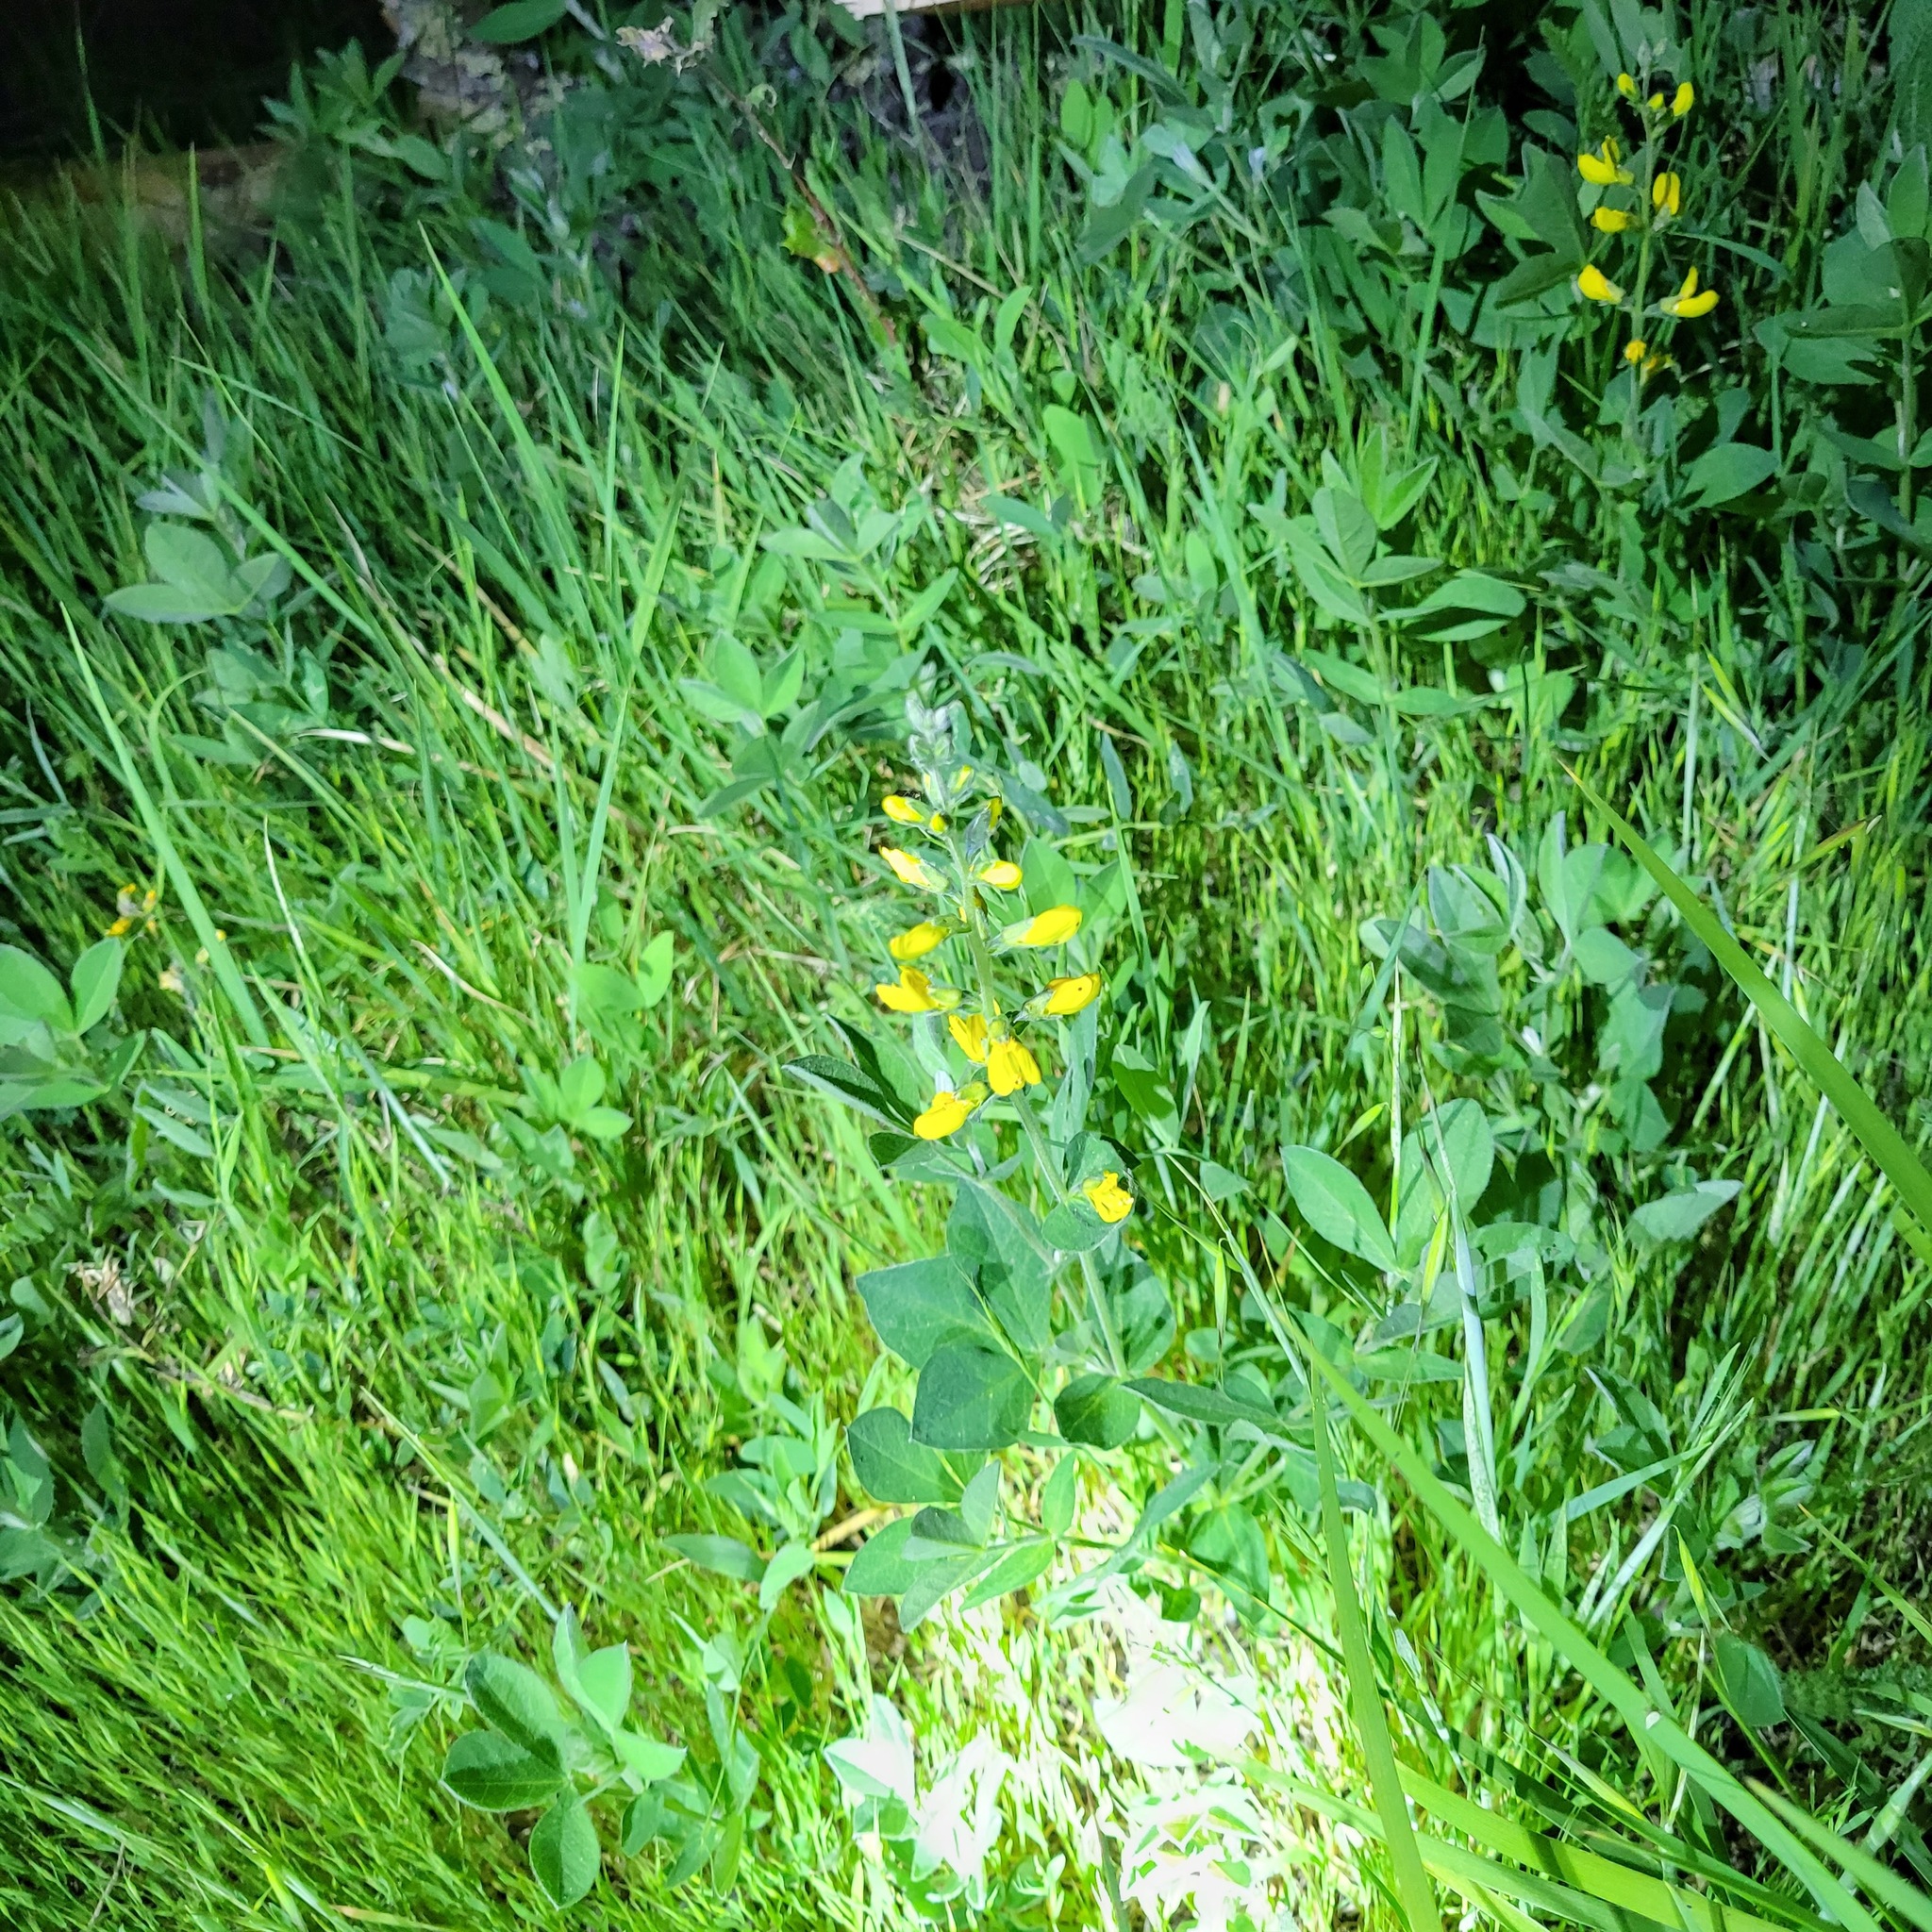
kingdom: Plantae
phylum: Tracheophyta
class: Magnoliopsida
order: Fabales
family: Fabaceae
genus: Thermopsis
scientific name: Thermopsis californica
